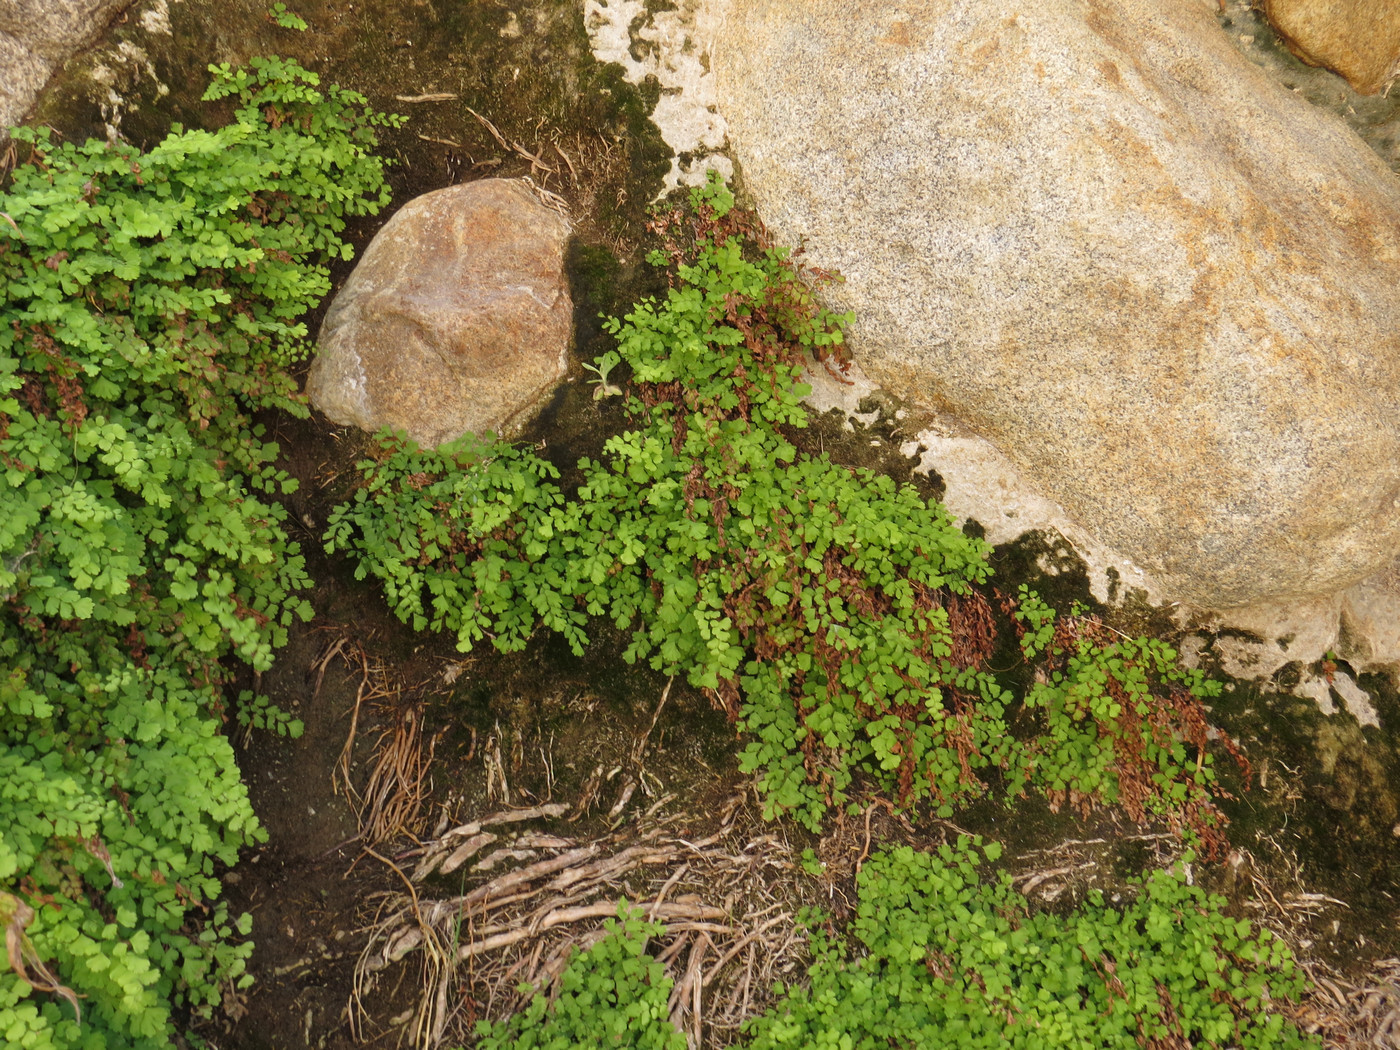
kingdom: Plantae
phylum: Tracheophyta
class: Polypodiopsida
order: Polypodiales
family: Pteridaceae
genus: Adiantum
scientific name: Adiantum capillus-veneris
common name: Maidenhair fern
